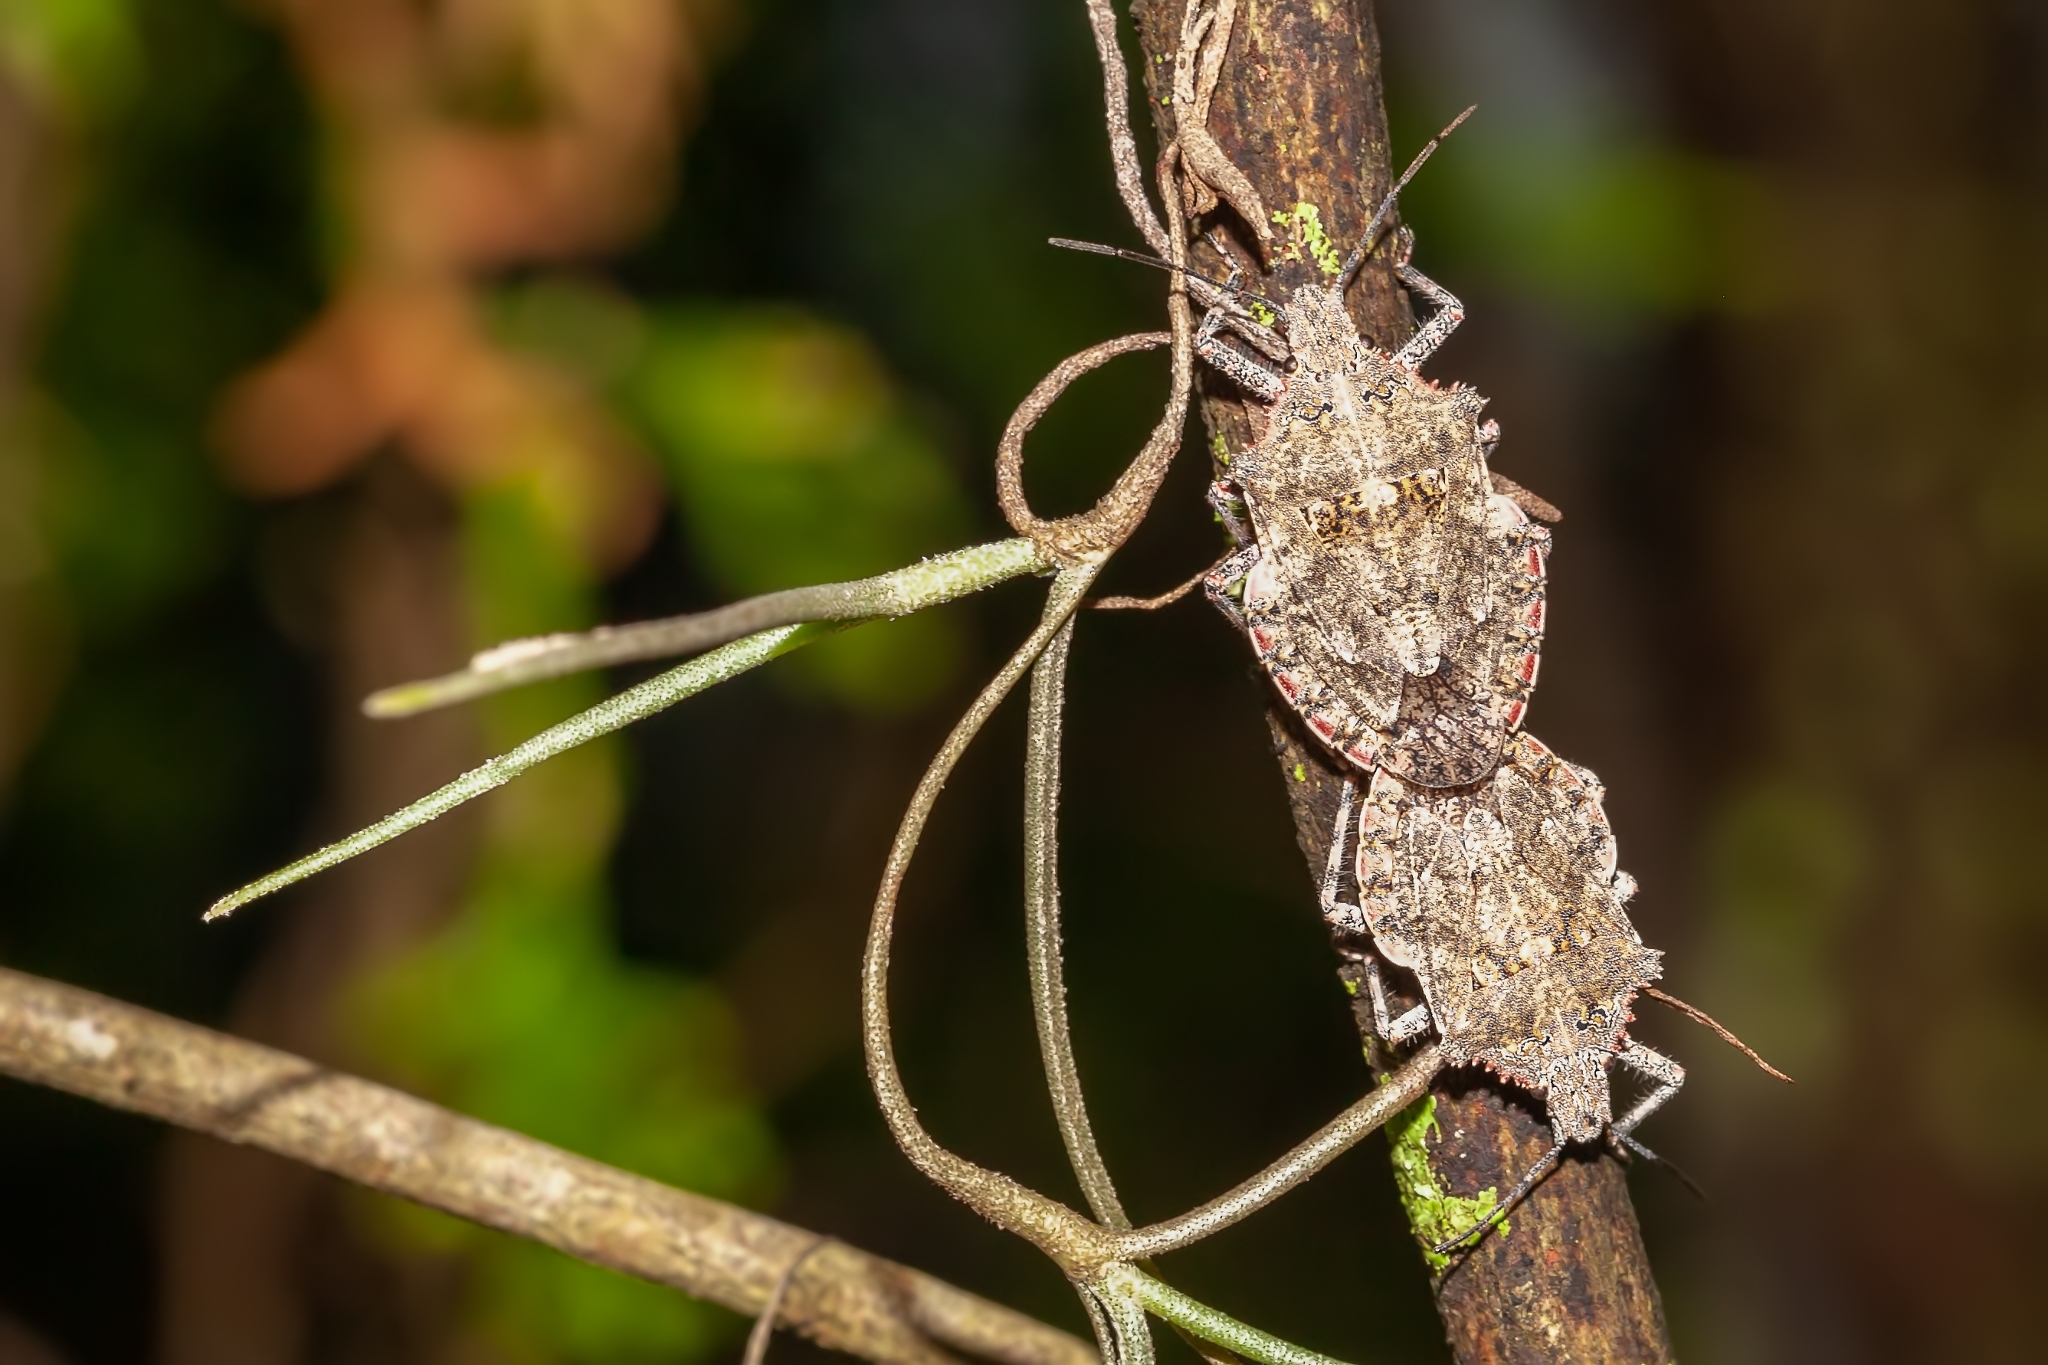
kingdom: Animalia
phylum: Arthropoda
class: Insecta
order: Hemiptera
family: Pentatomidae
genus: Brochymena
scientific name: Brochymena florida
